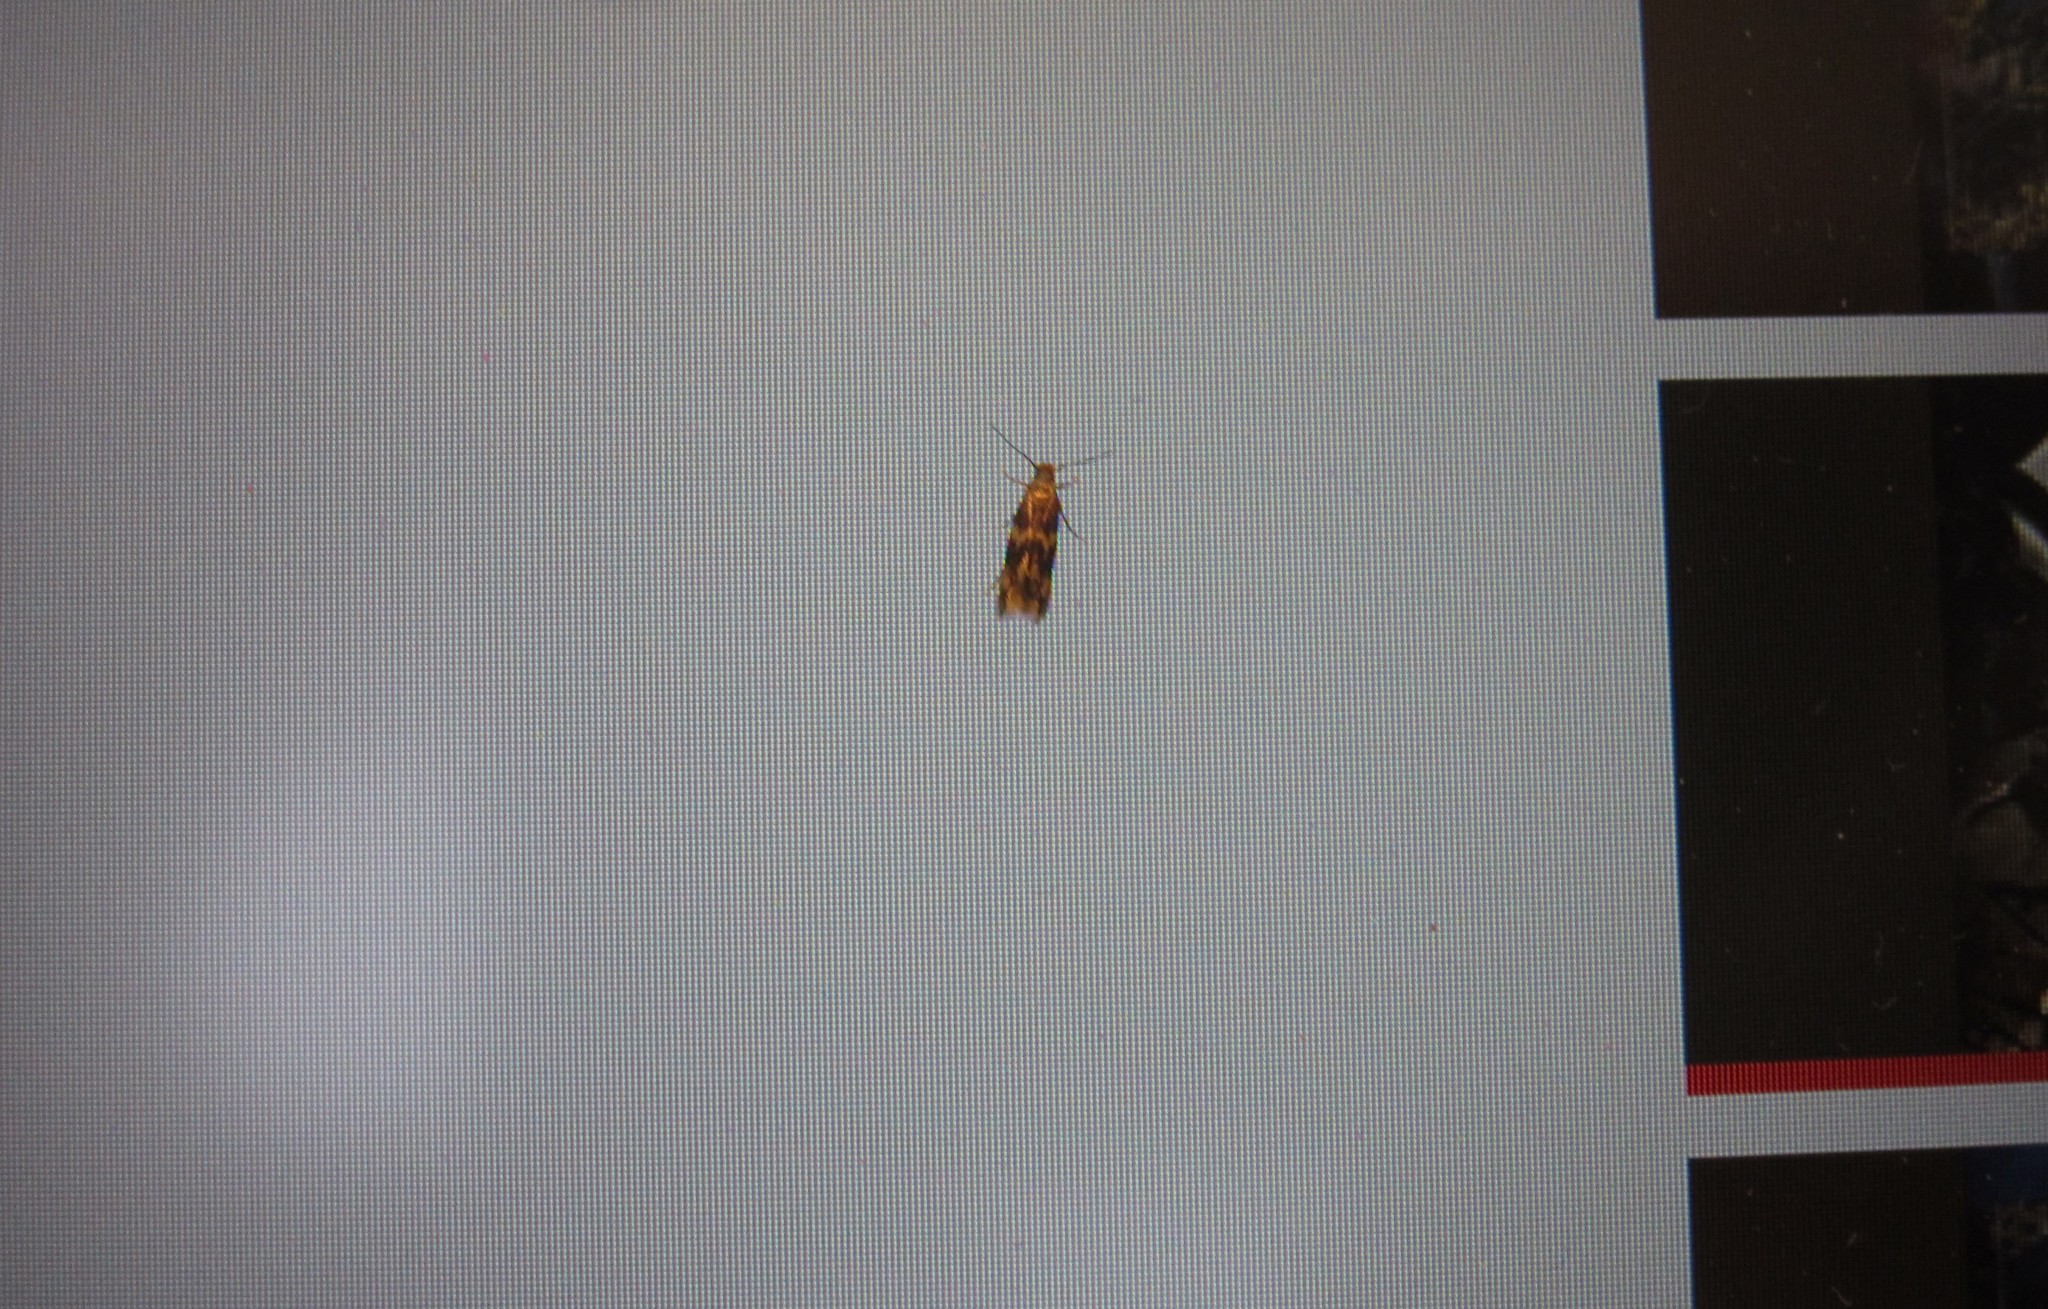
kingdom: Animalia
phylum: Arthropoda
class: Insecta
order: Lepidoptera
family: Tineidae
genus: Oinophila
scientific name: Oinophila v-flava
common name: Yellow v moth
